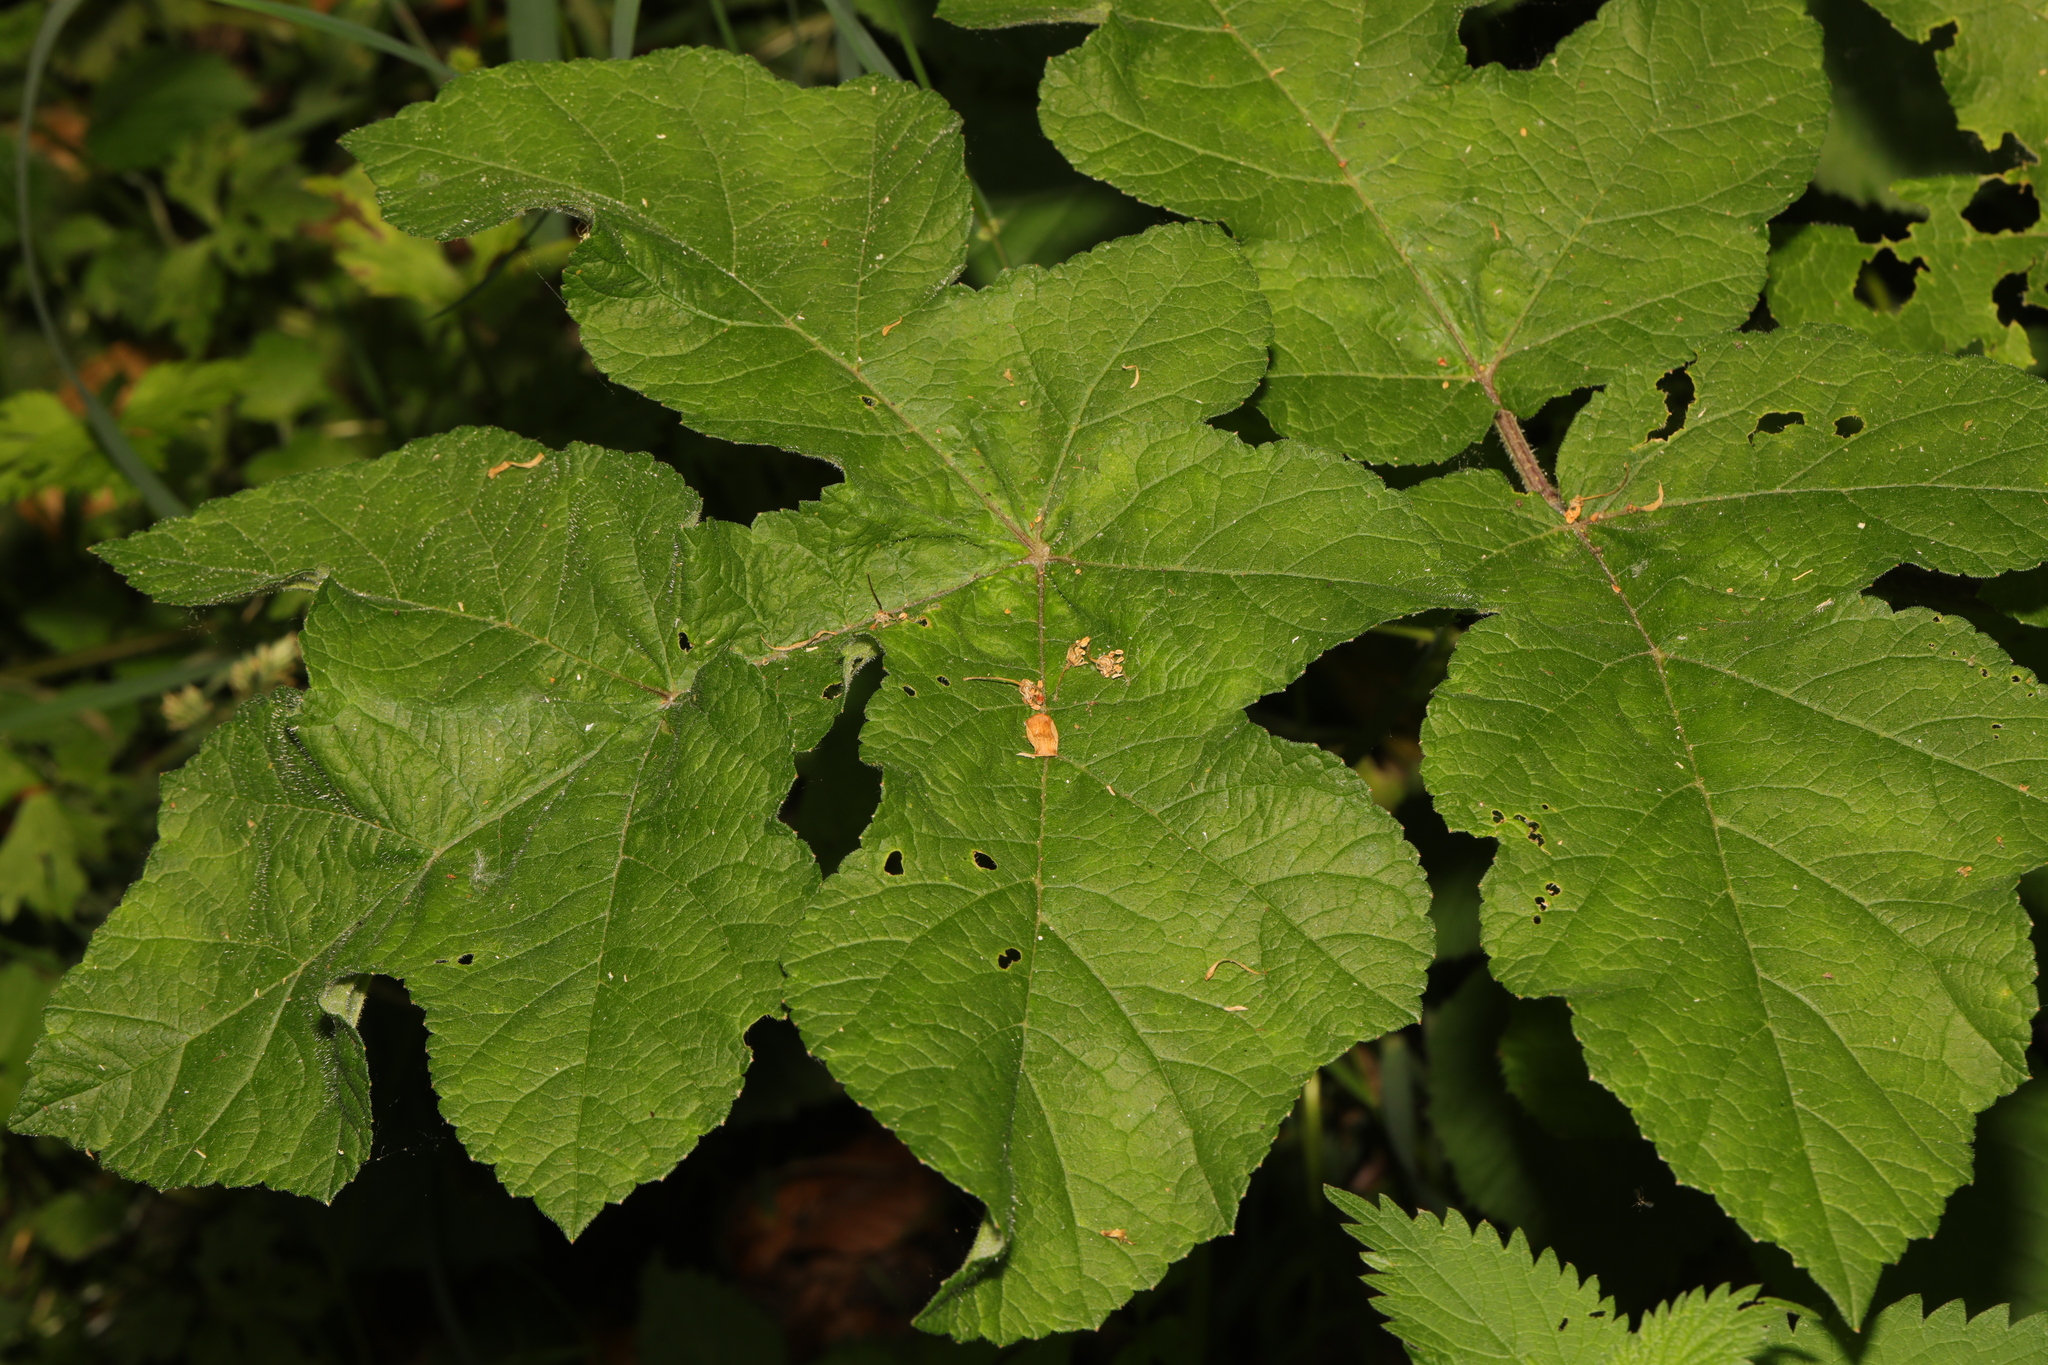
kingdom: Plantae
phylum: Tracheophyta
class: Magnoliopsida
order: Apiales
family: Apiaceae
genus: Heracleum
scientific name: Heracleum sphondylium
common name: Hogweed
